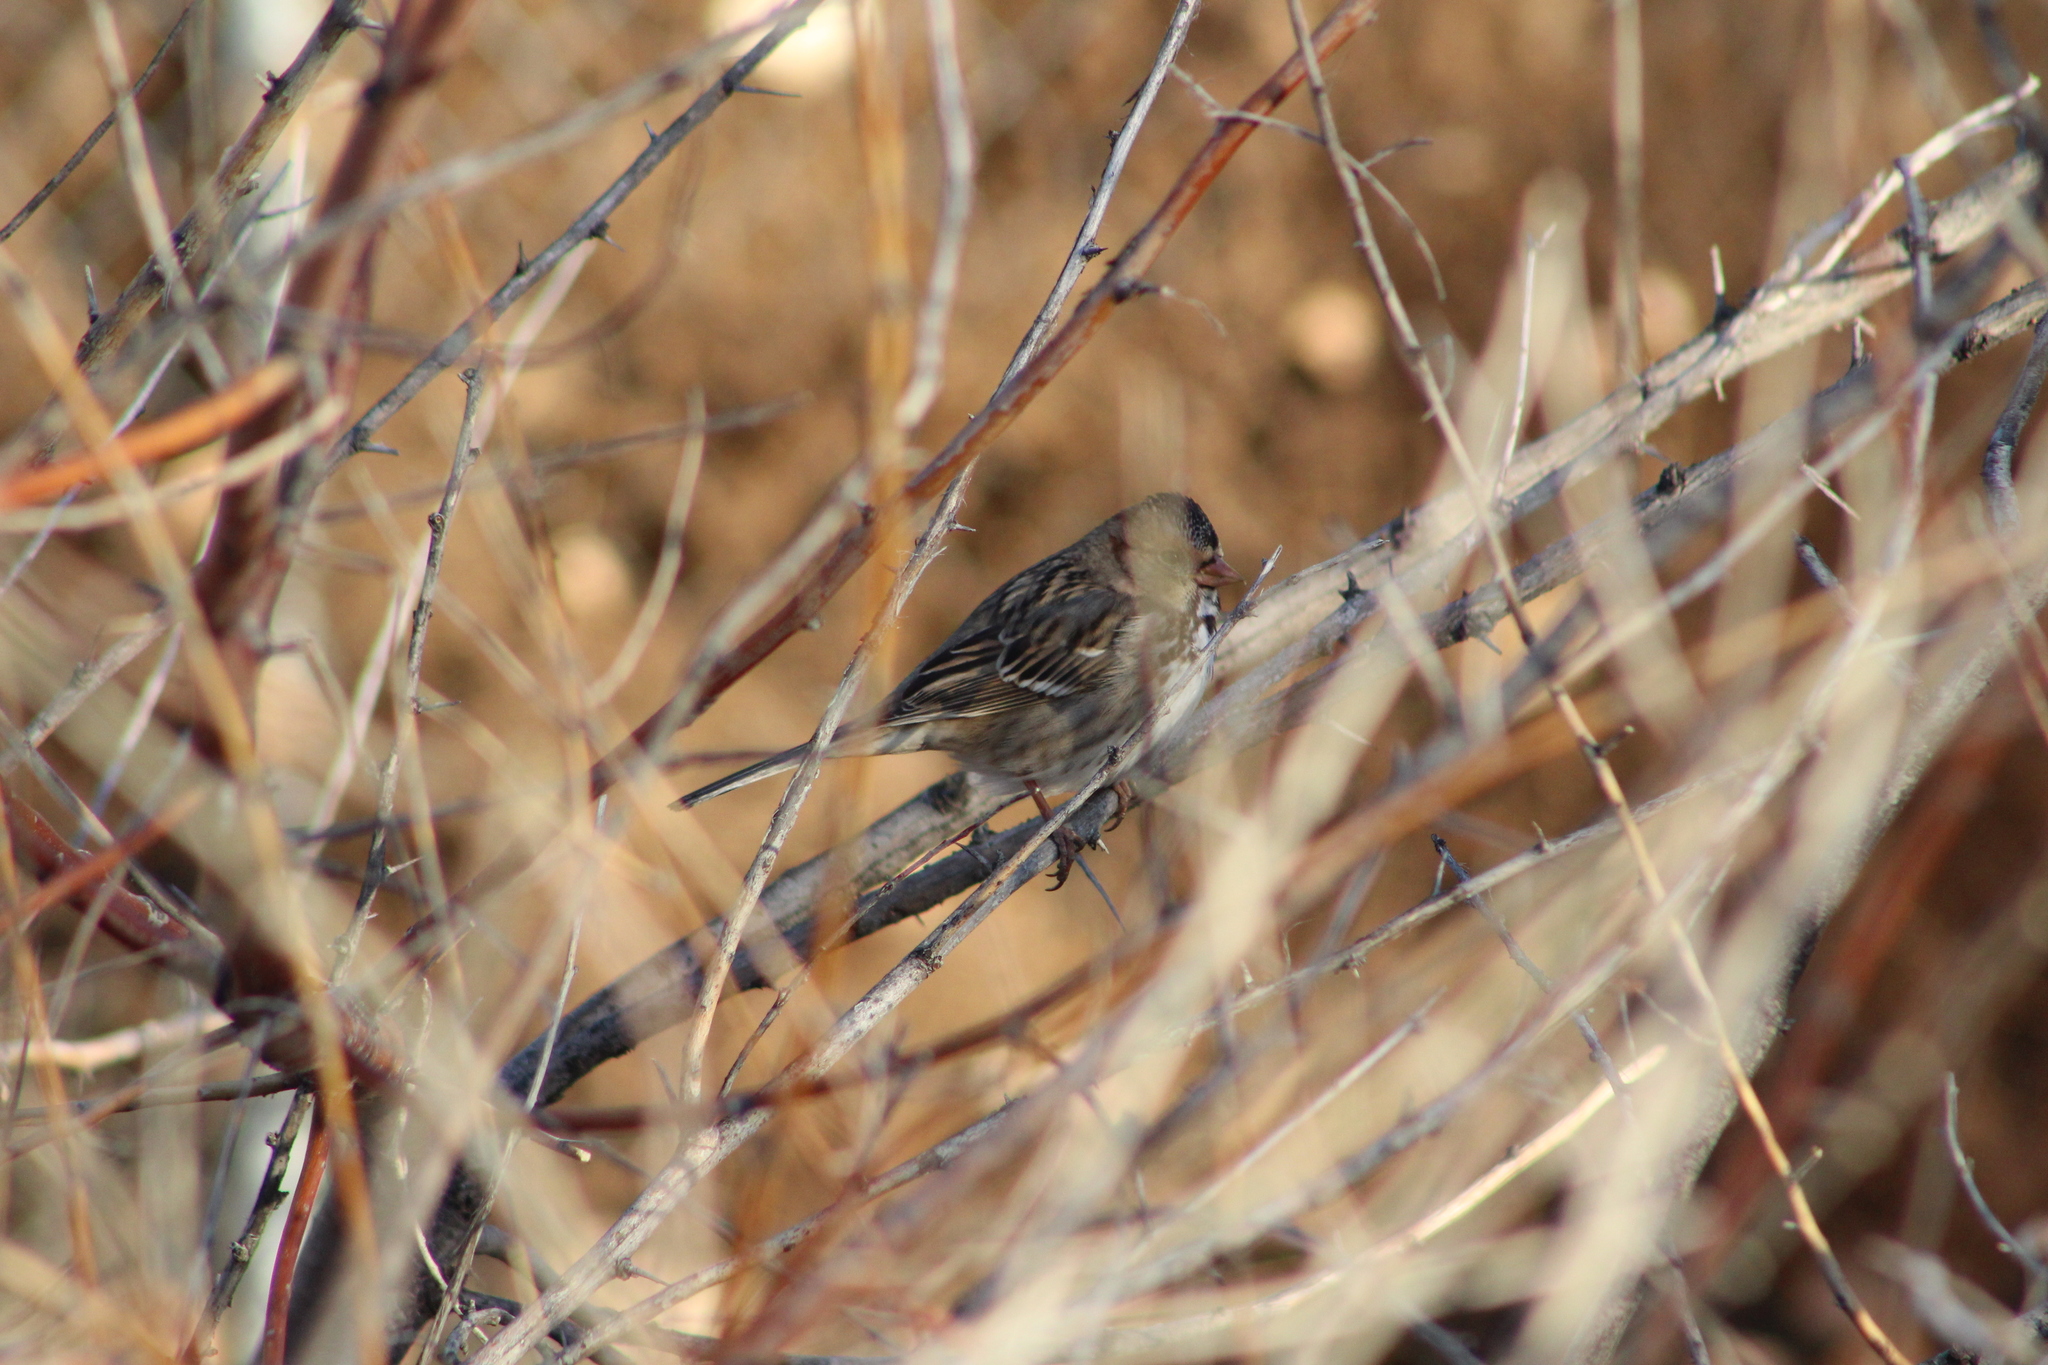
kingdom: Animalia
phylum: Chordata
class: Aves
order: Passeriformes
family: Passerellidae
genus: Zonotrichia
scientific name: Zonotrichia querula
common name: Harris's sparrow
